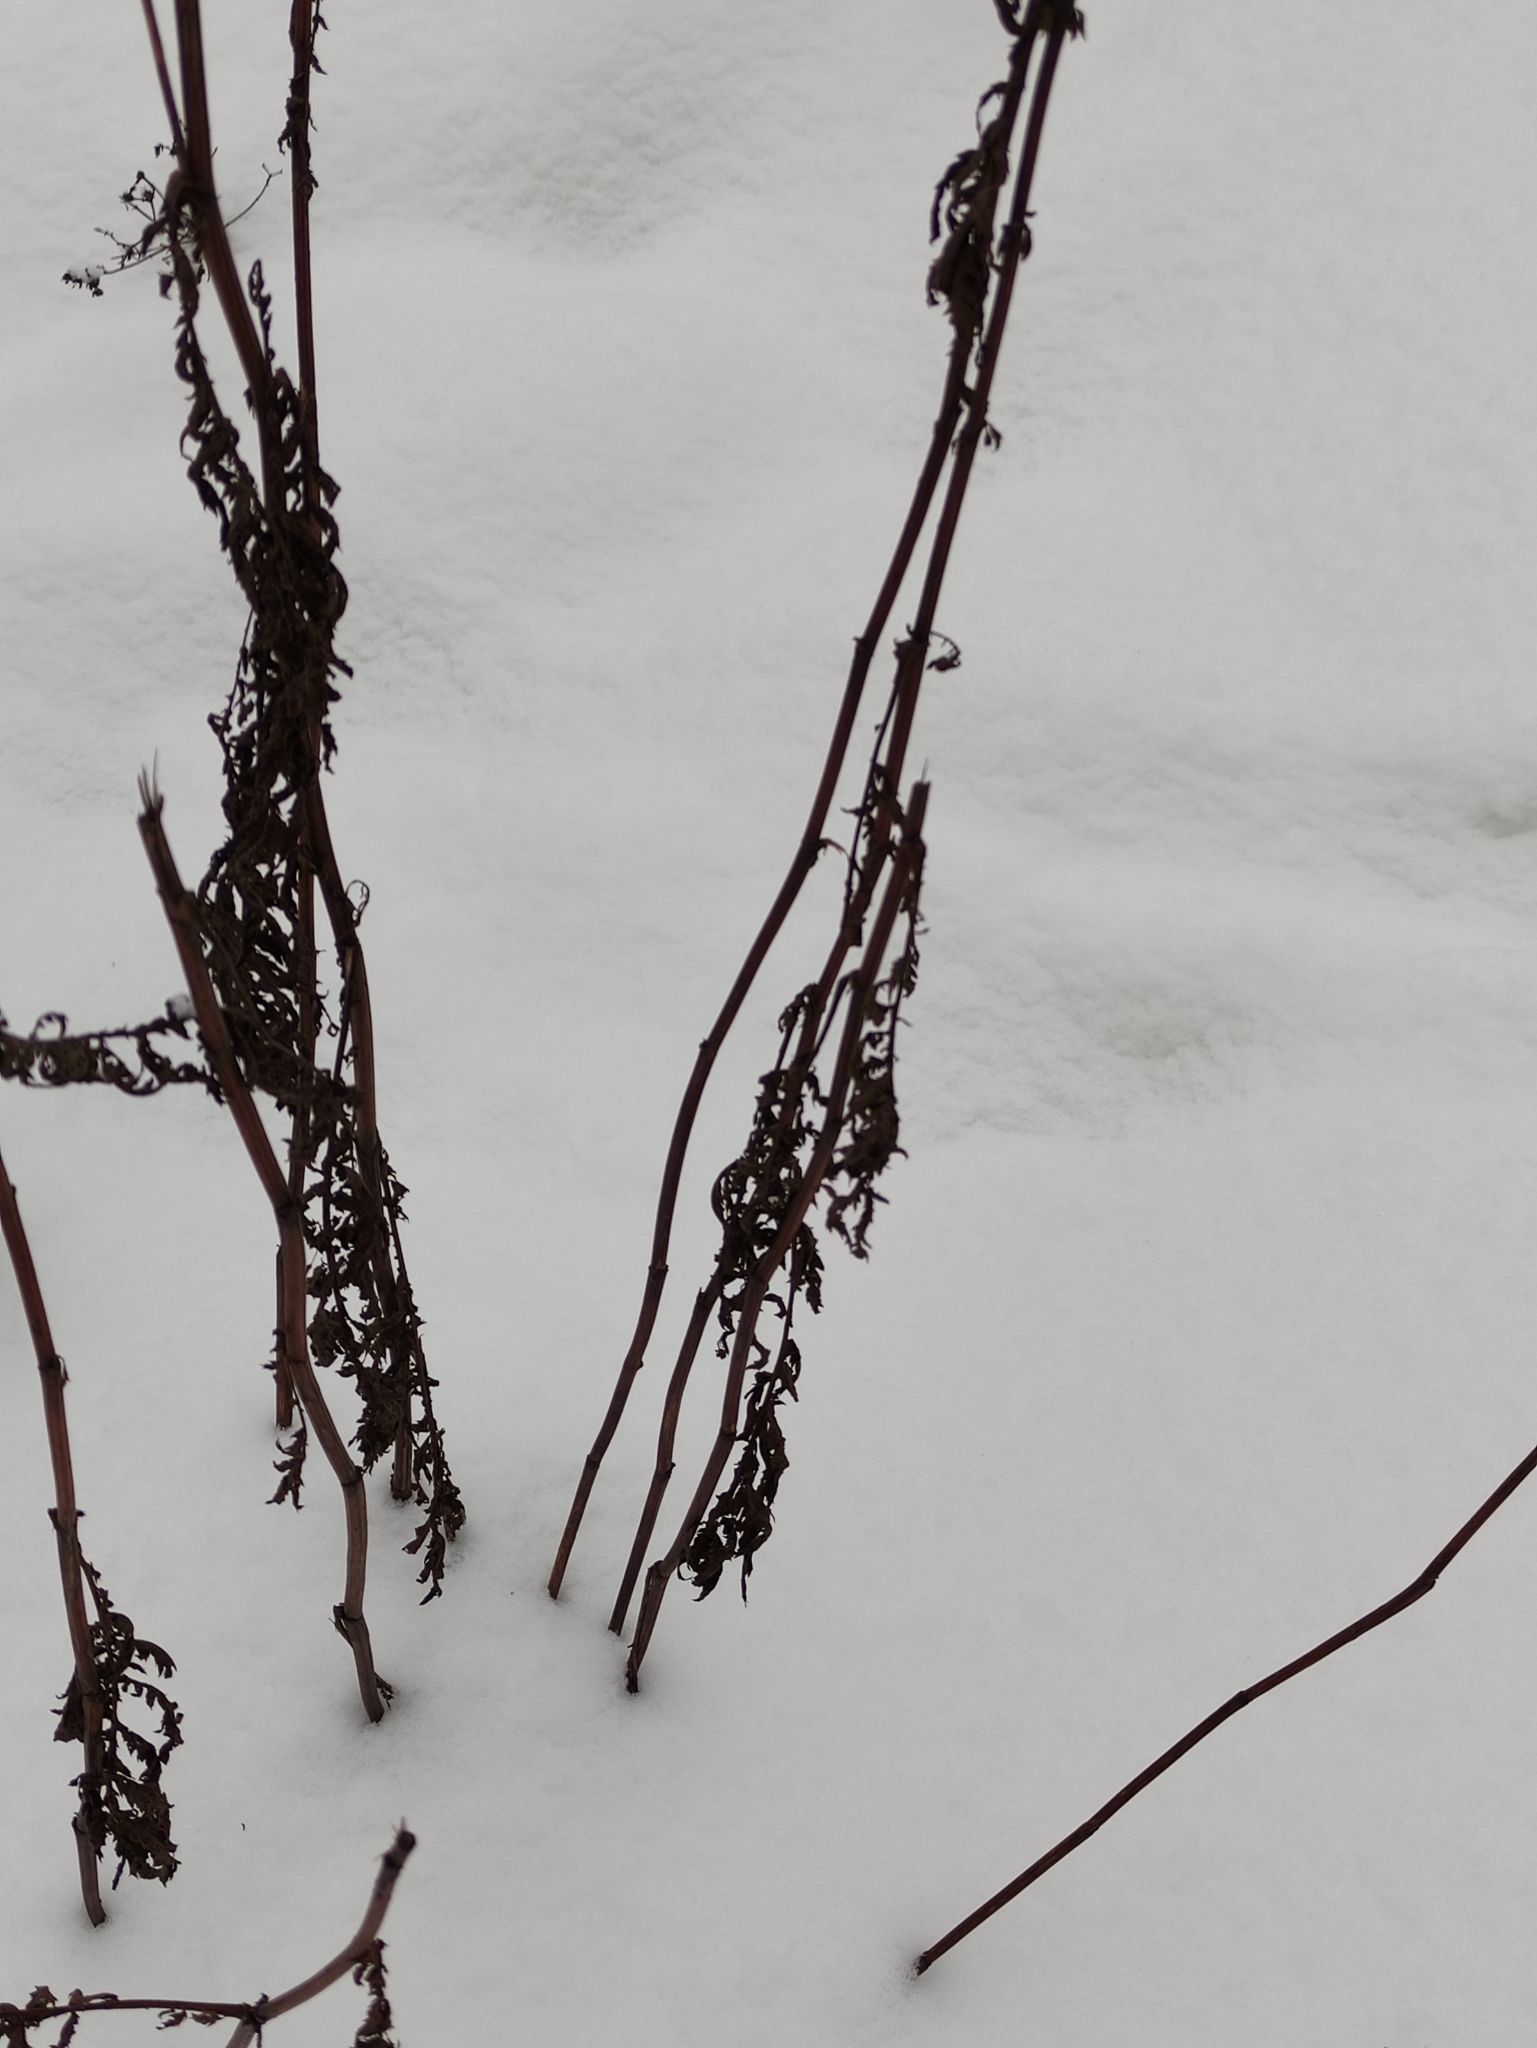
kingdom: Plantae
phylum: Tracheophyta
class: Magnoliopsida
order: Asterales
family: Asteraceae
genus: Tanacetum
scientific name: Tanacetum vulgare
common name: Common tansy
